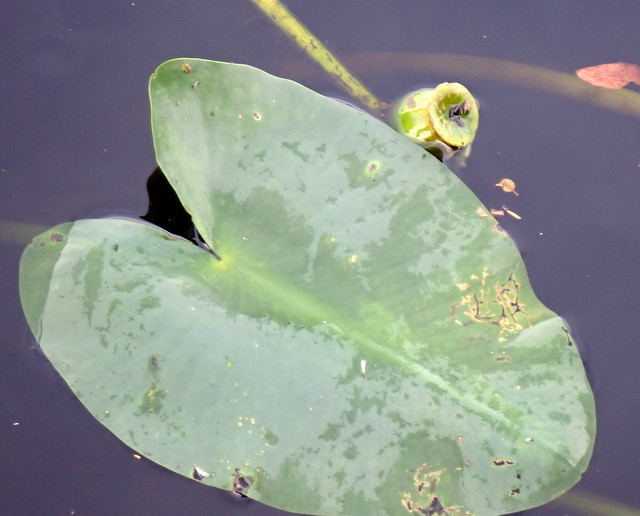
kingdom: Plantae
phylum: Tracheophyta
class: Magnoliopsida
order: Nymphaeales
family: Nymphaeaceae
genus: Nuphar
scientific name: Nuphar advena
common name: Spatter-dock
